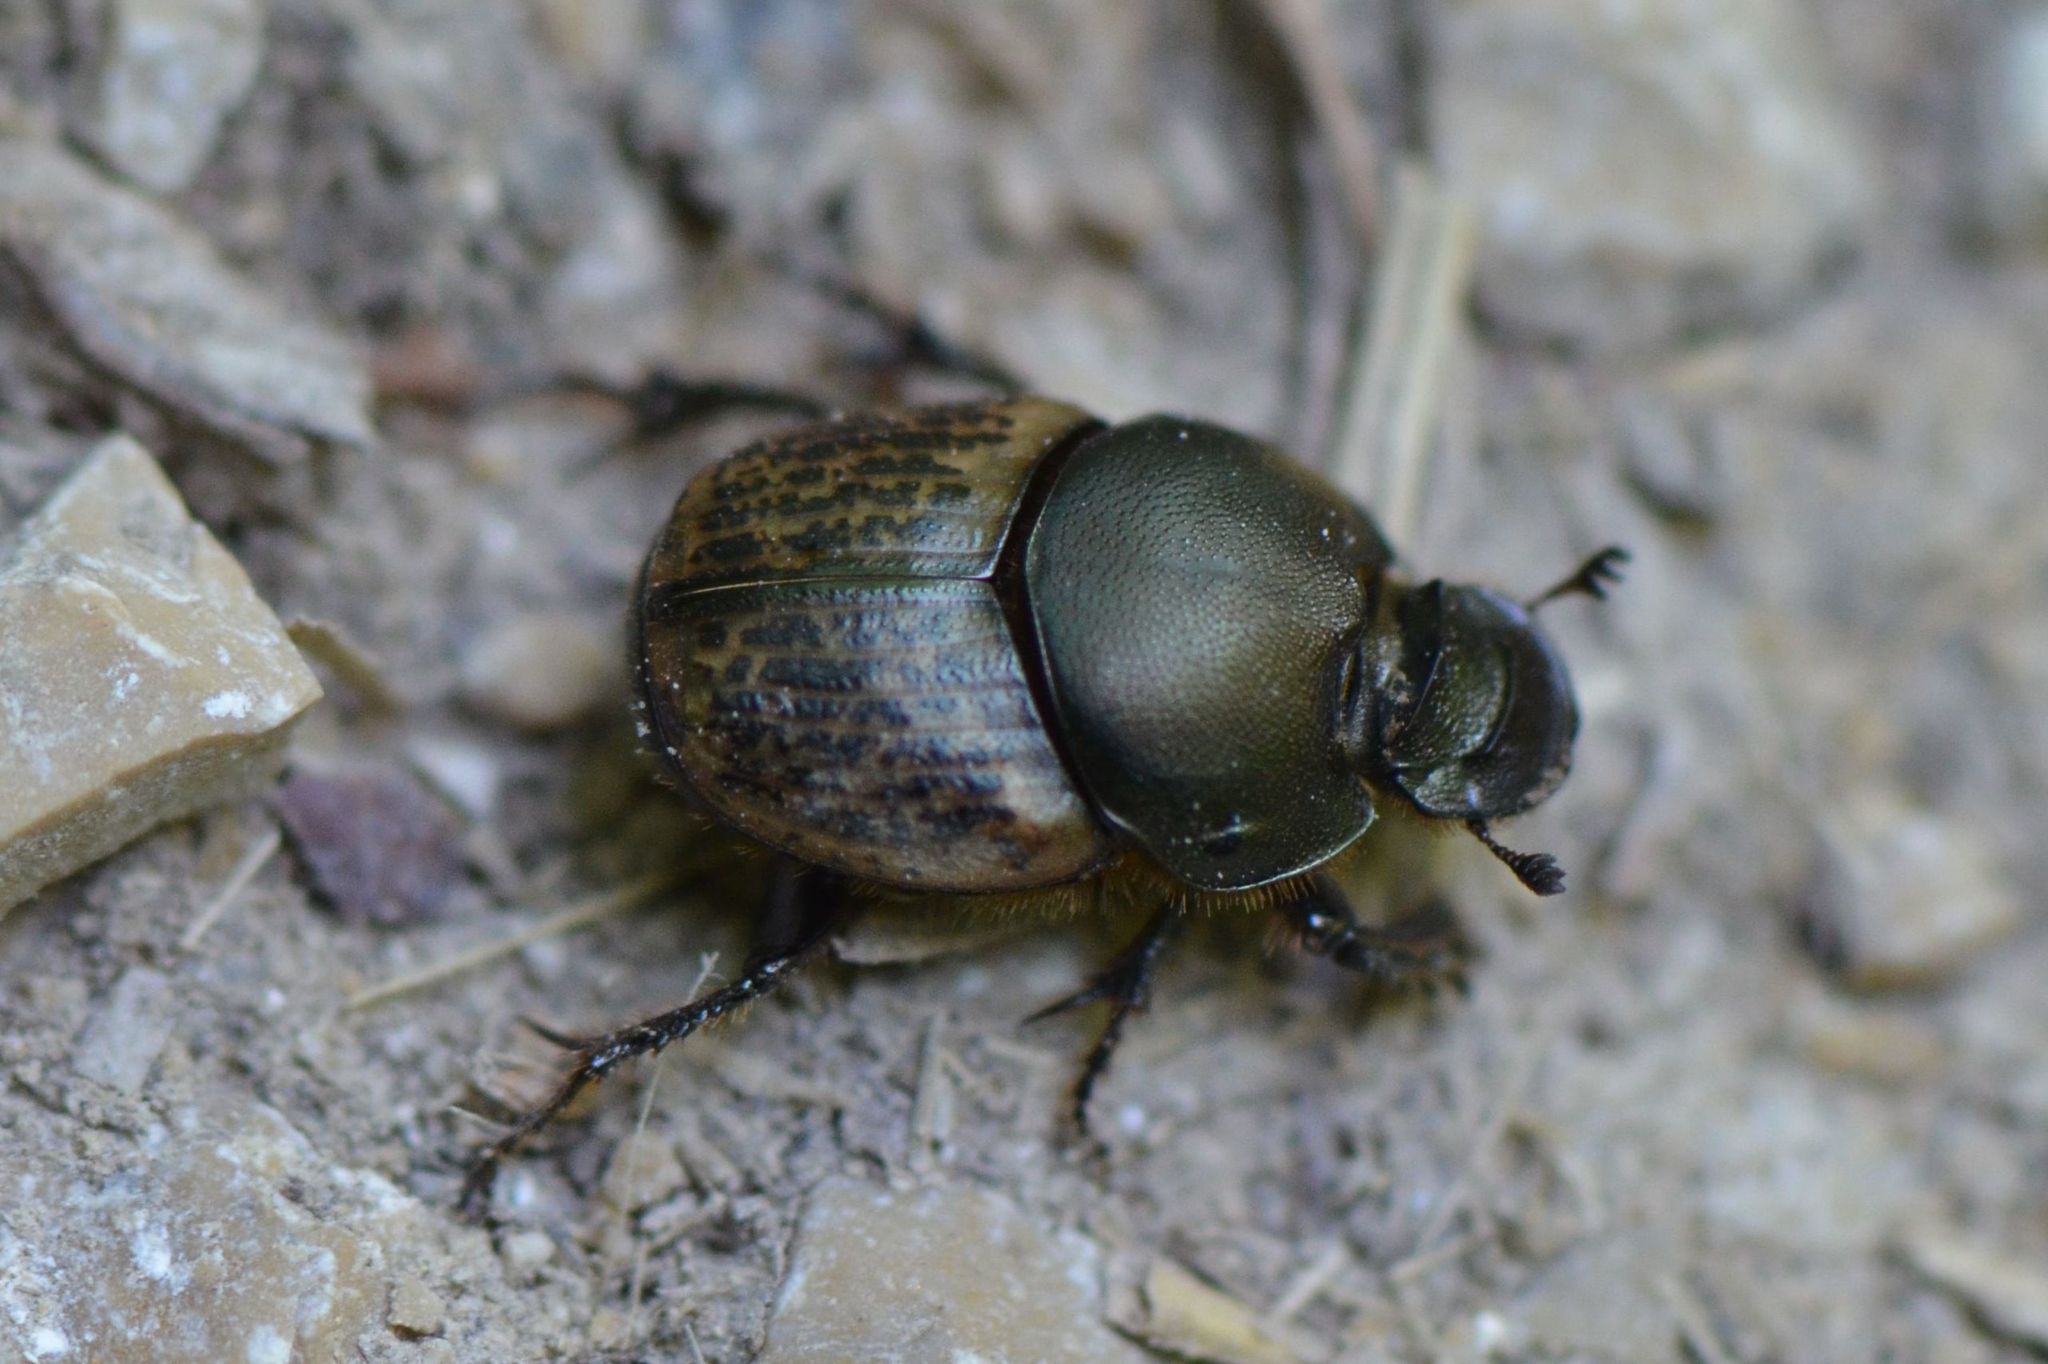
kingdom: Animalia
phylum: Arthropoda
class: Insecta
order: Coleoptera
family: Scarabaeidae
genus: Onthophagus
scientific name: Onthophagus medius
